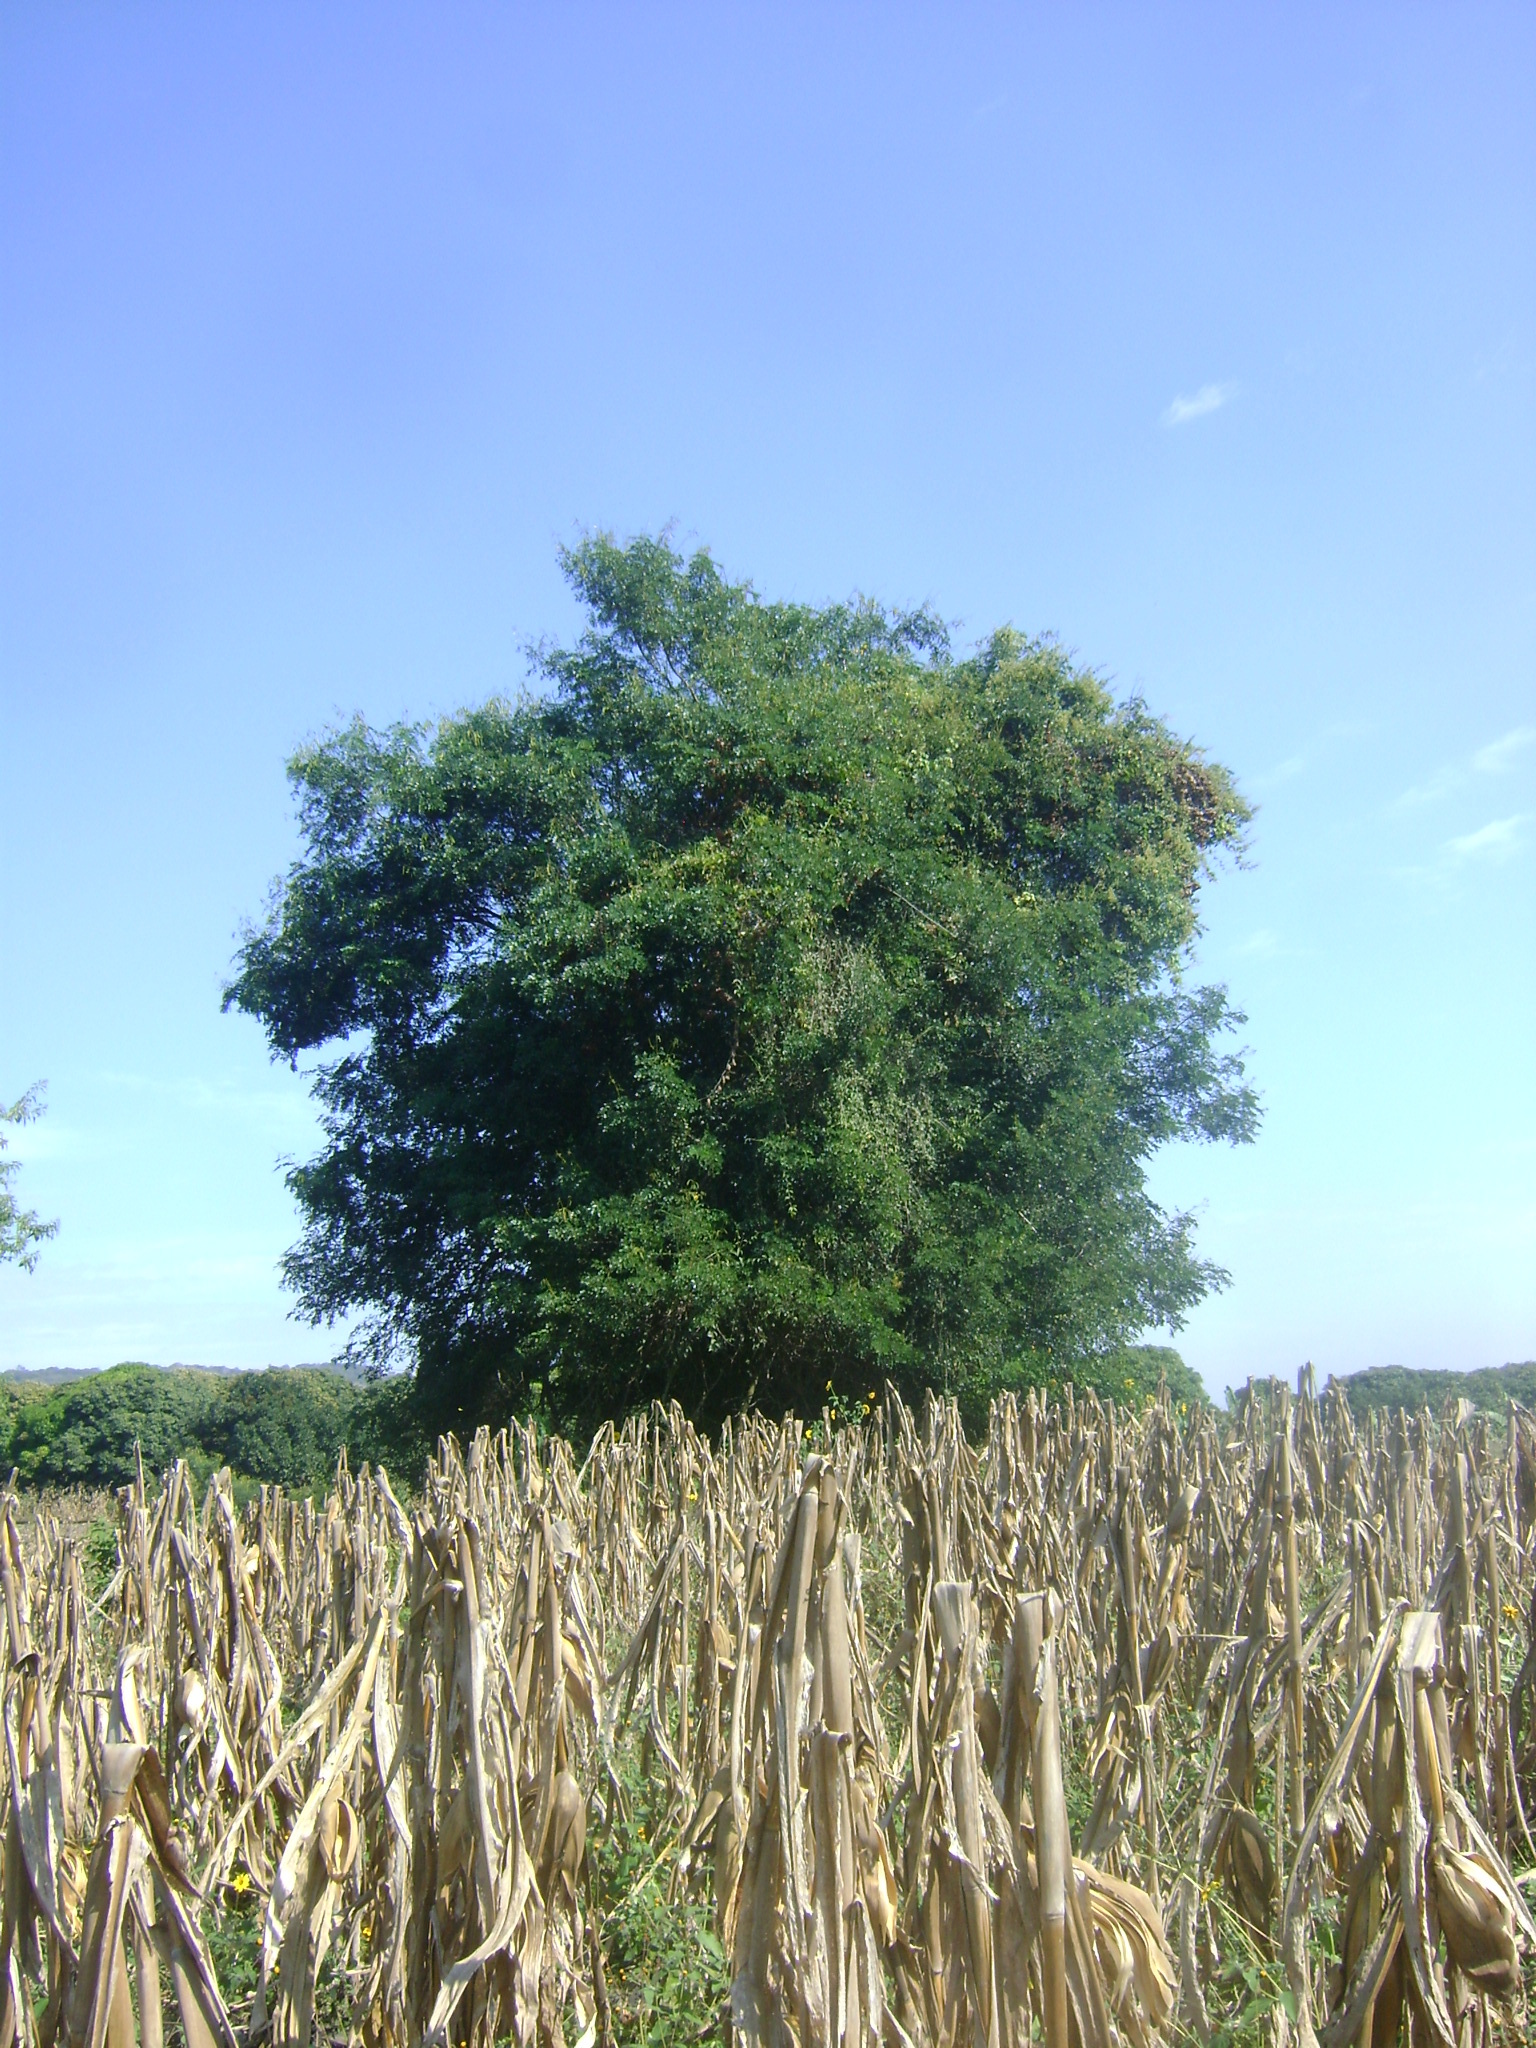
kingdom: Plantae
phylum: Tracheophyta
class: Magnoliopsida
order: Fabales
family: Fabaceae
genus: Tara
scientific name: Tara cacalaco
